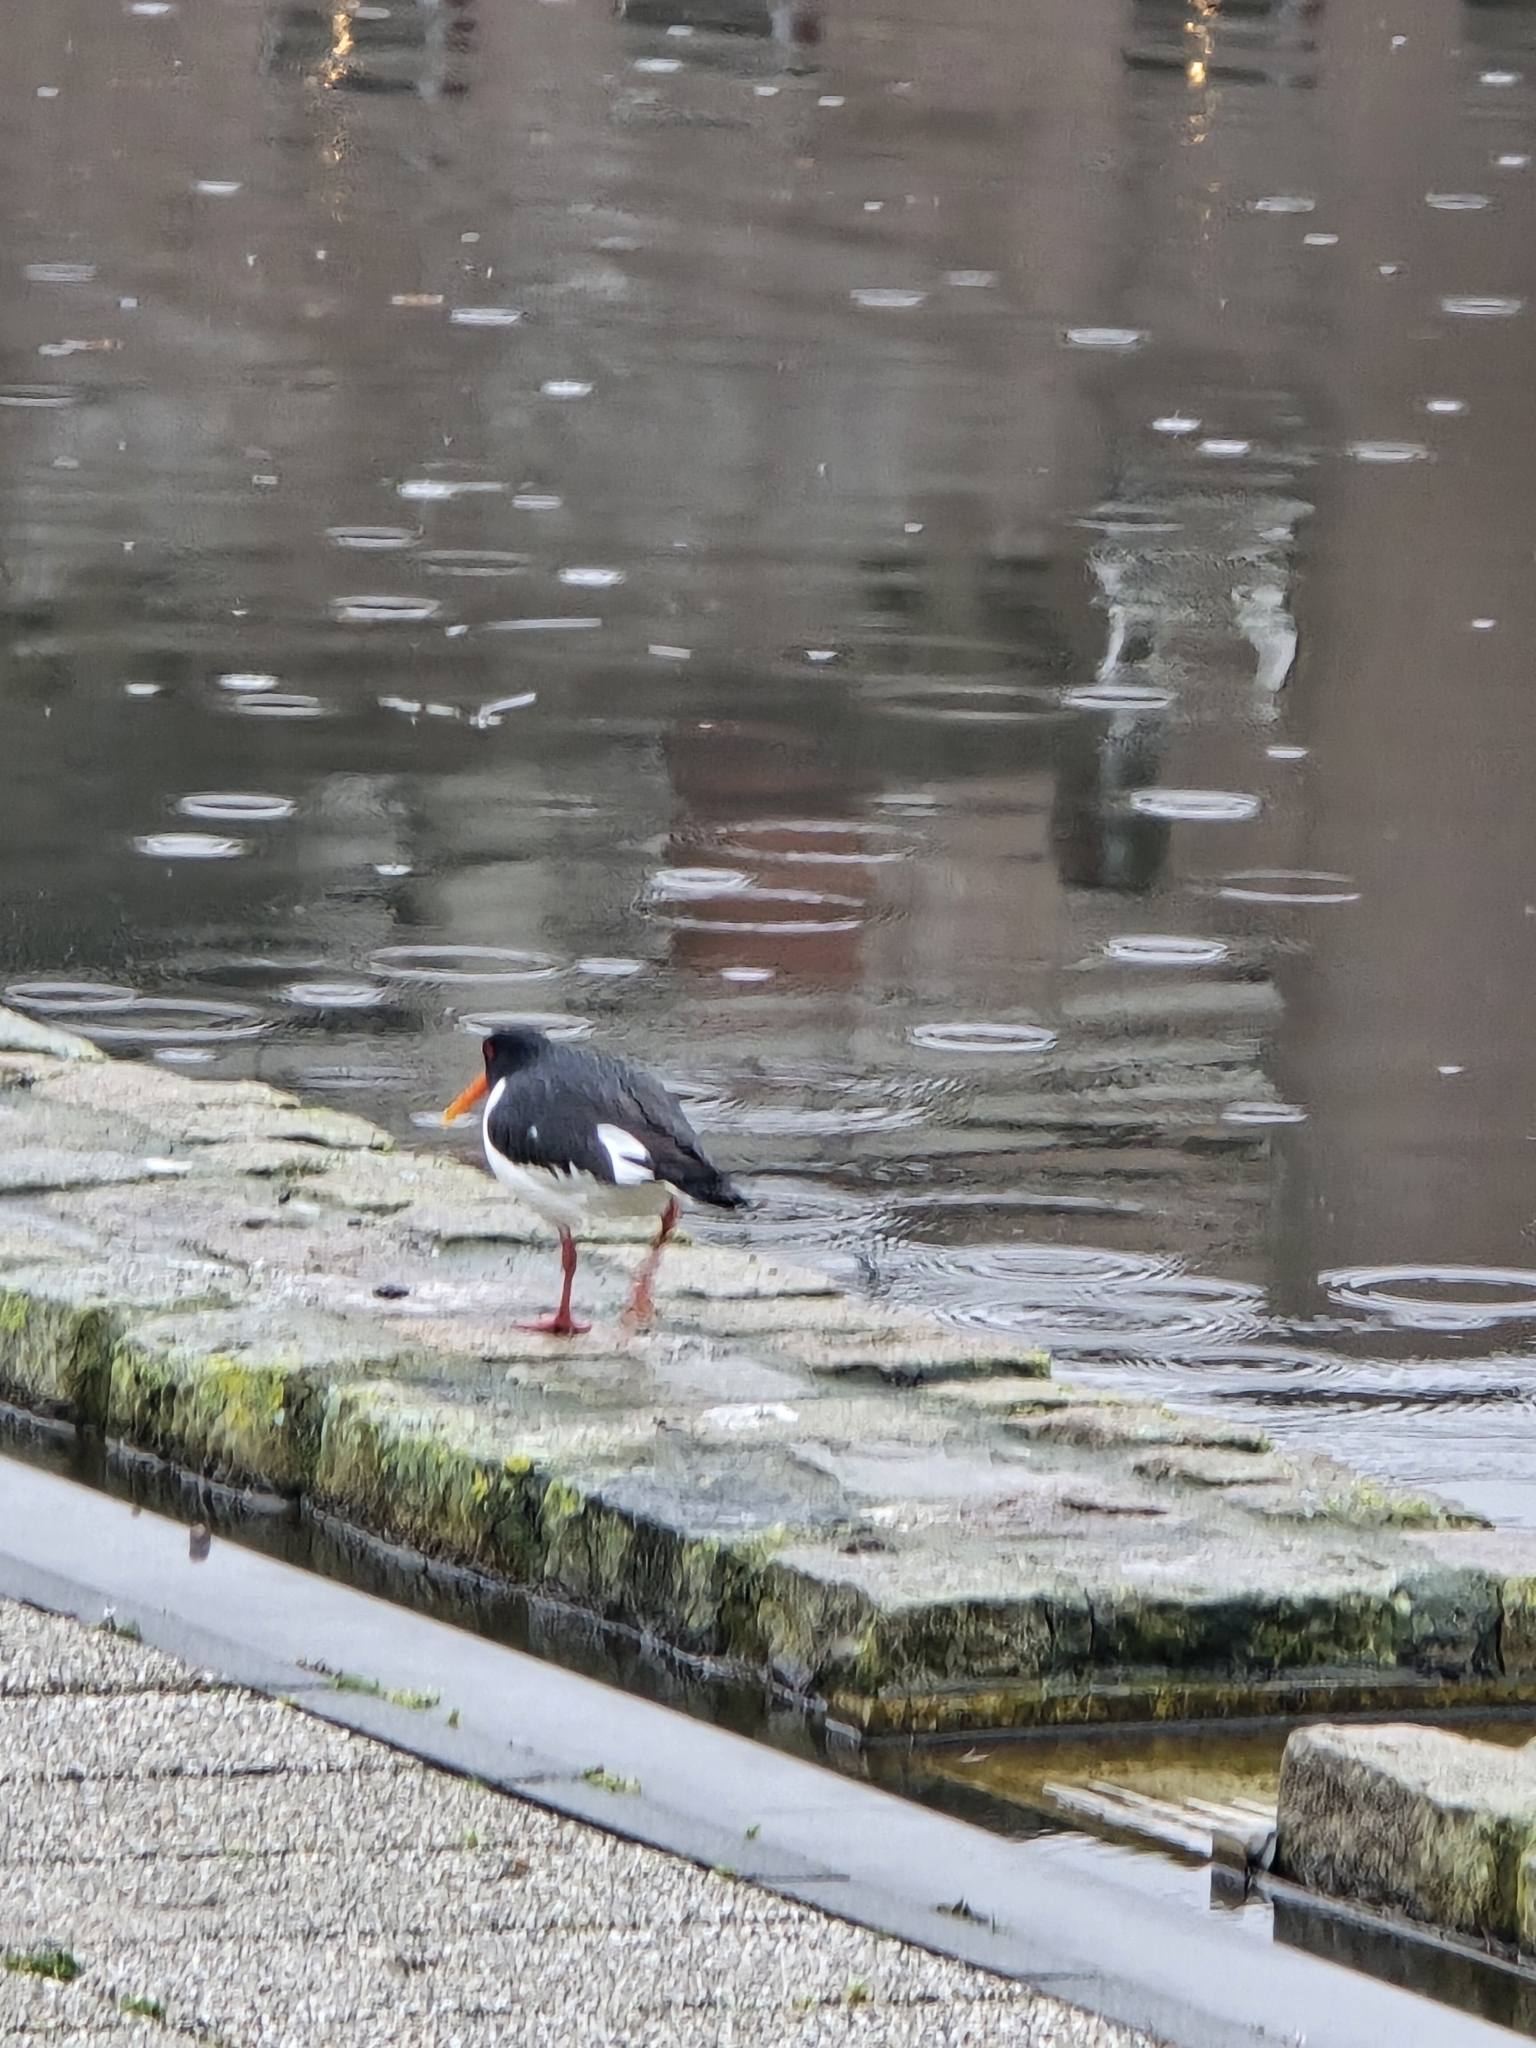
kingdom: Animalia
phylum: Chordata
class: Aves
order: Charadriiformes
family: Haematopodidae
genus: Haematopus
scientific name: Haematopus ostralegus
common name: Eurasian oystercatcher
